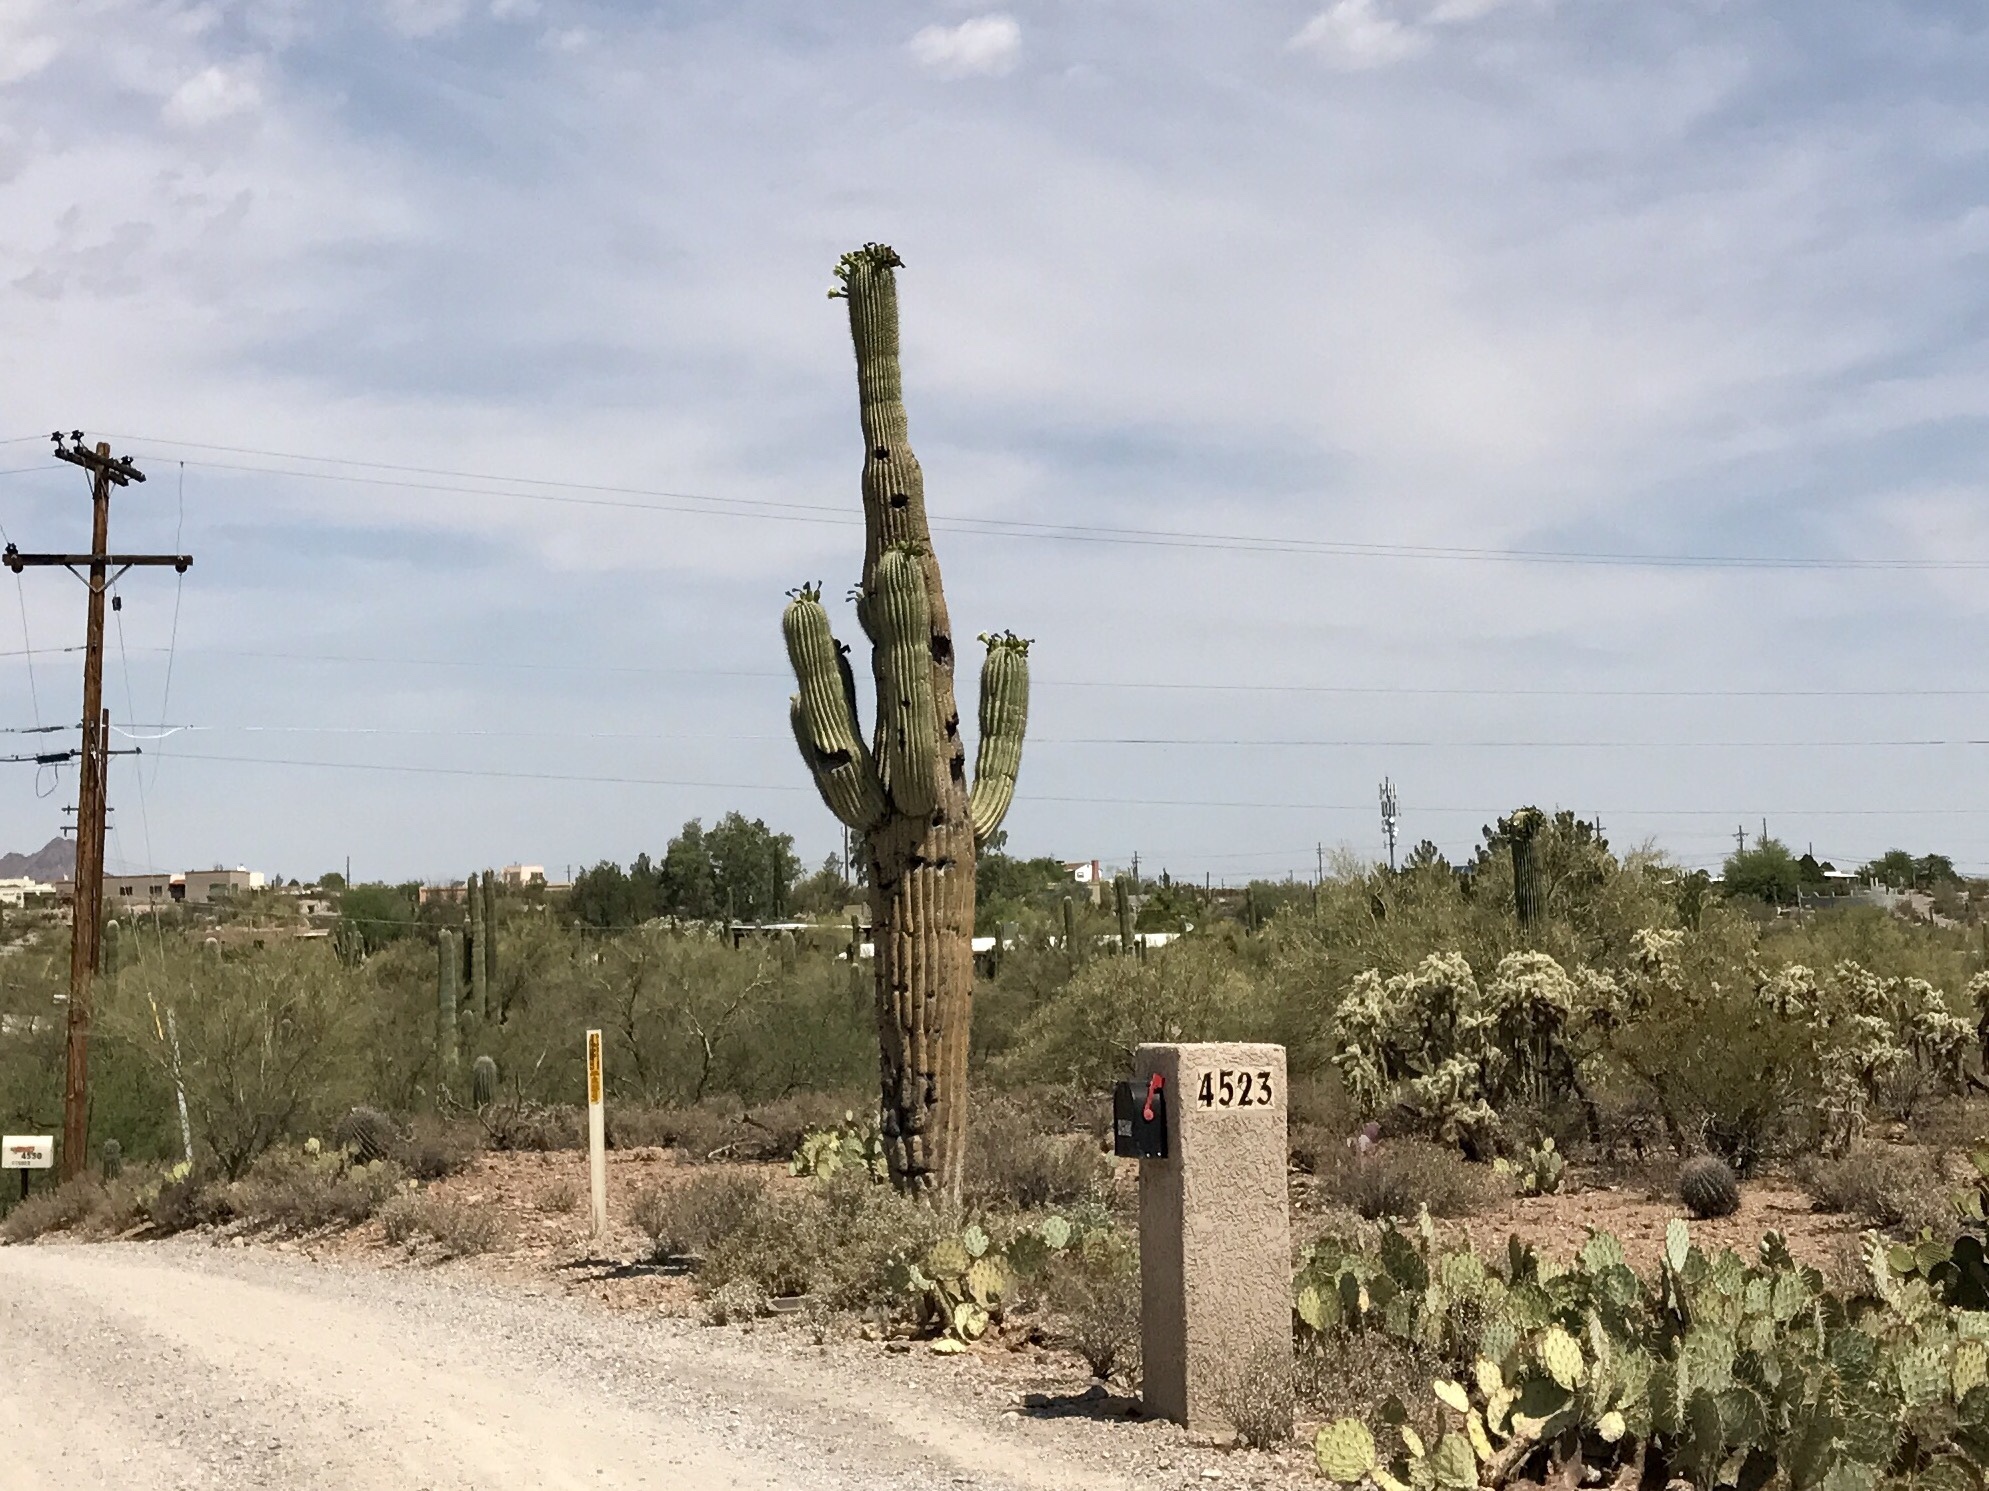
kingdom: Plantae
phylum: Tracheophyta
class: Magnoliopsida
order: Caryophyllales
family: Cactaceae
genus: Carnegiea
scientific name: Carnegiea gigantea
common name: Saguaro
